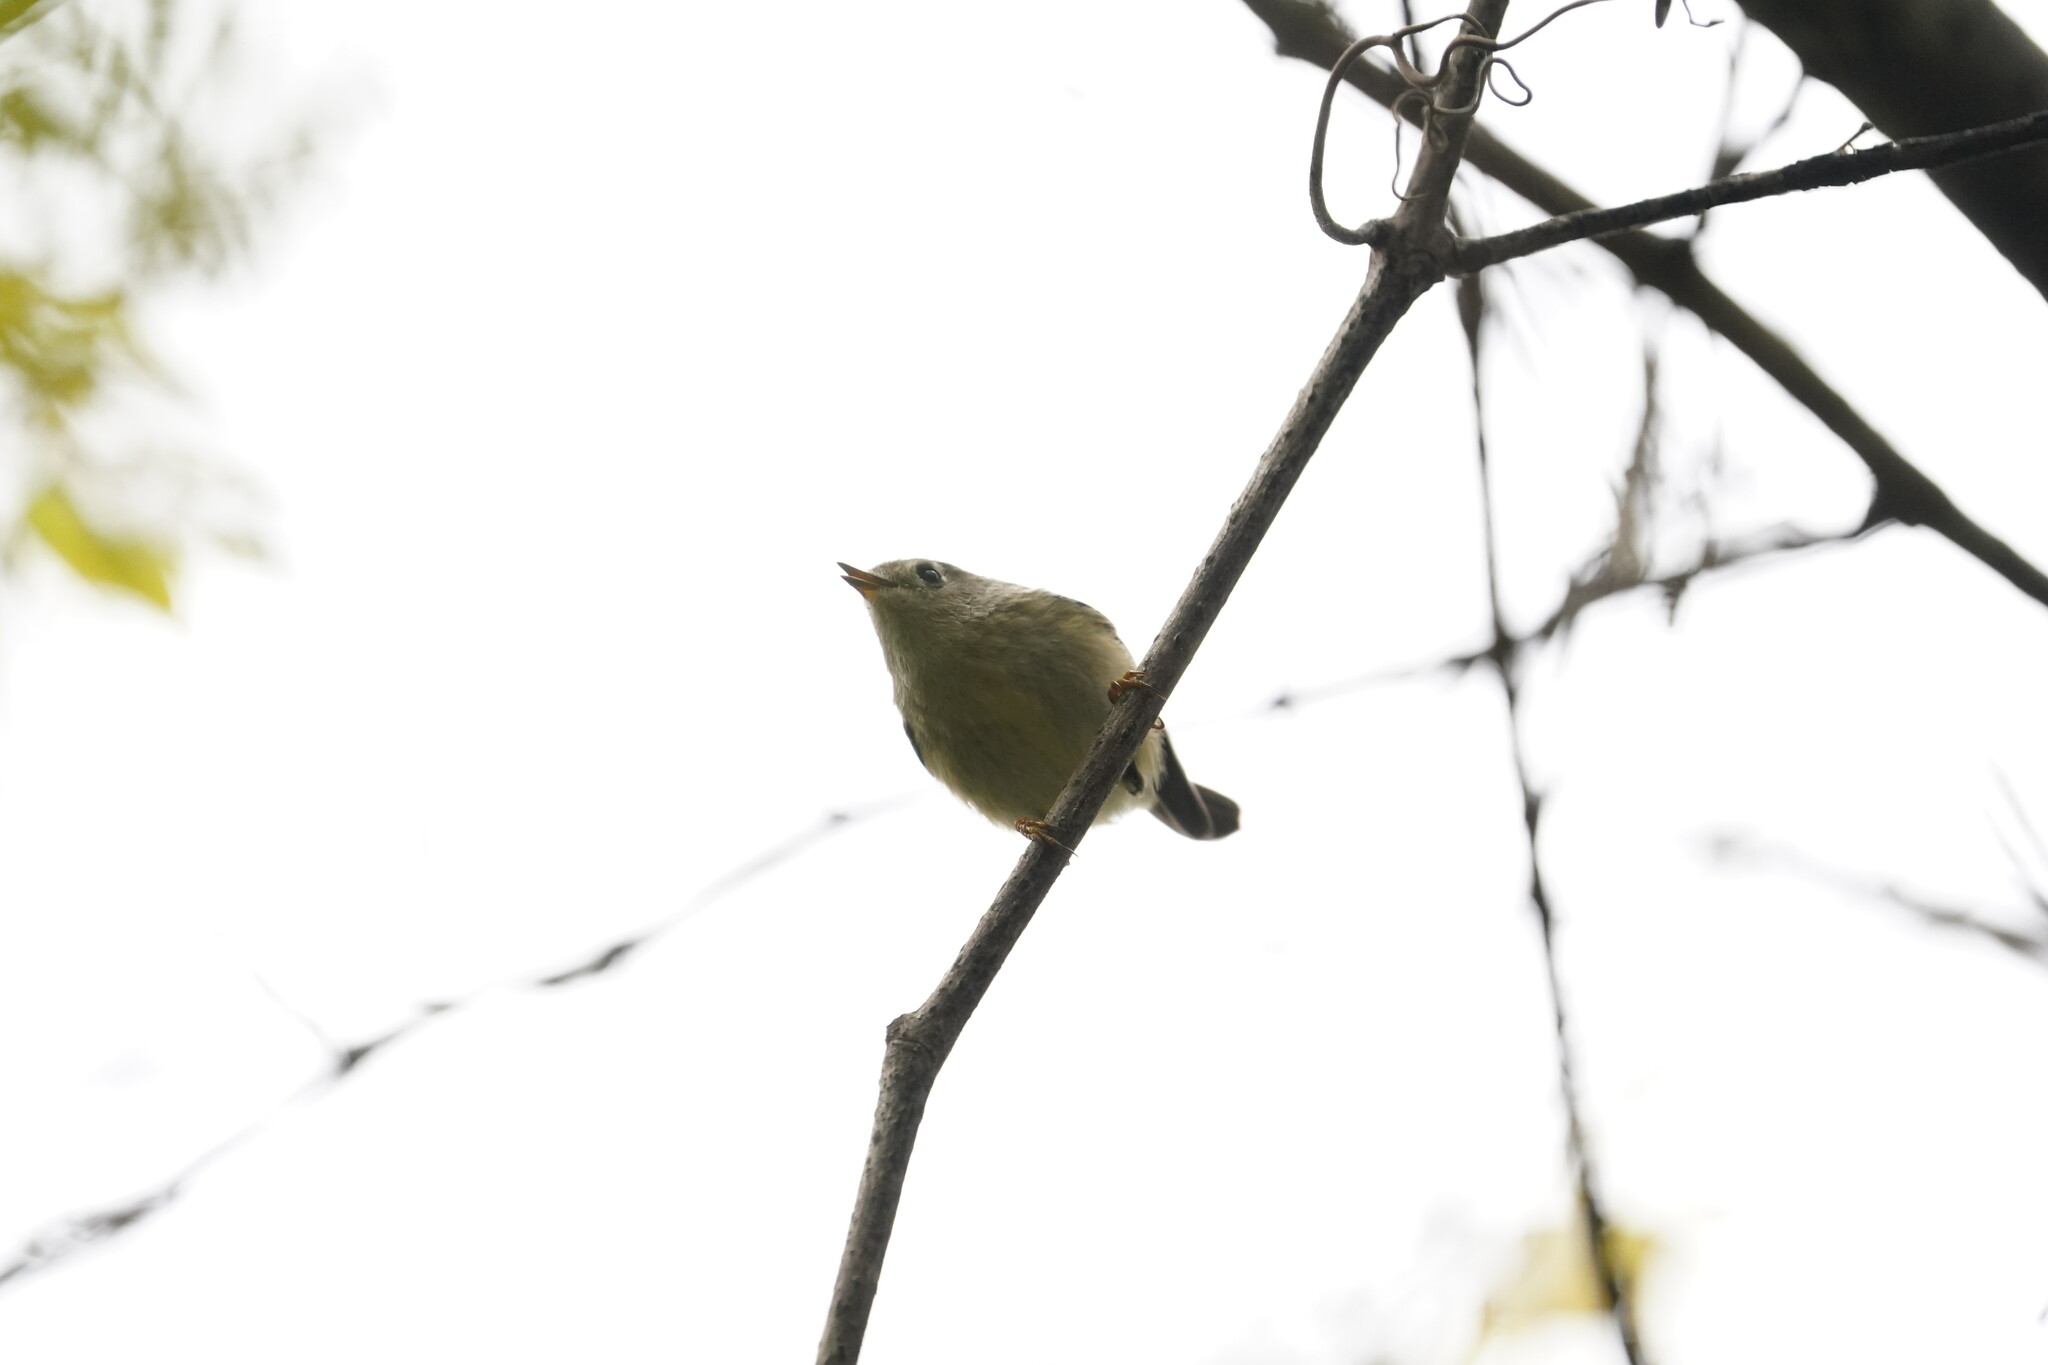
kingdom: Animalia
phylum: Chordata
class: Aves
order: Passeriformes
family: Regulidae
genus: Regulus
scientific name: Regulus calendula
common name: Ruby-crowned kinglet
